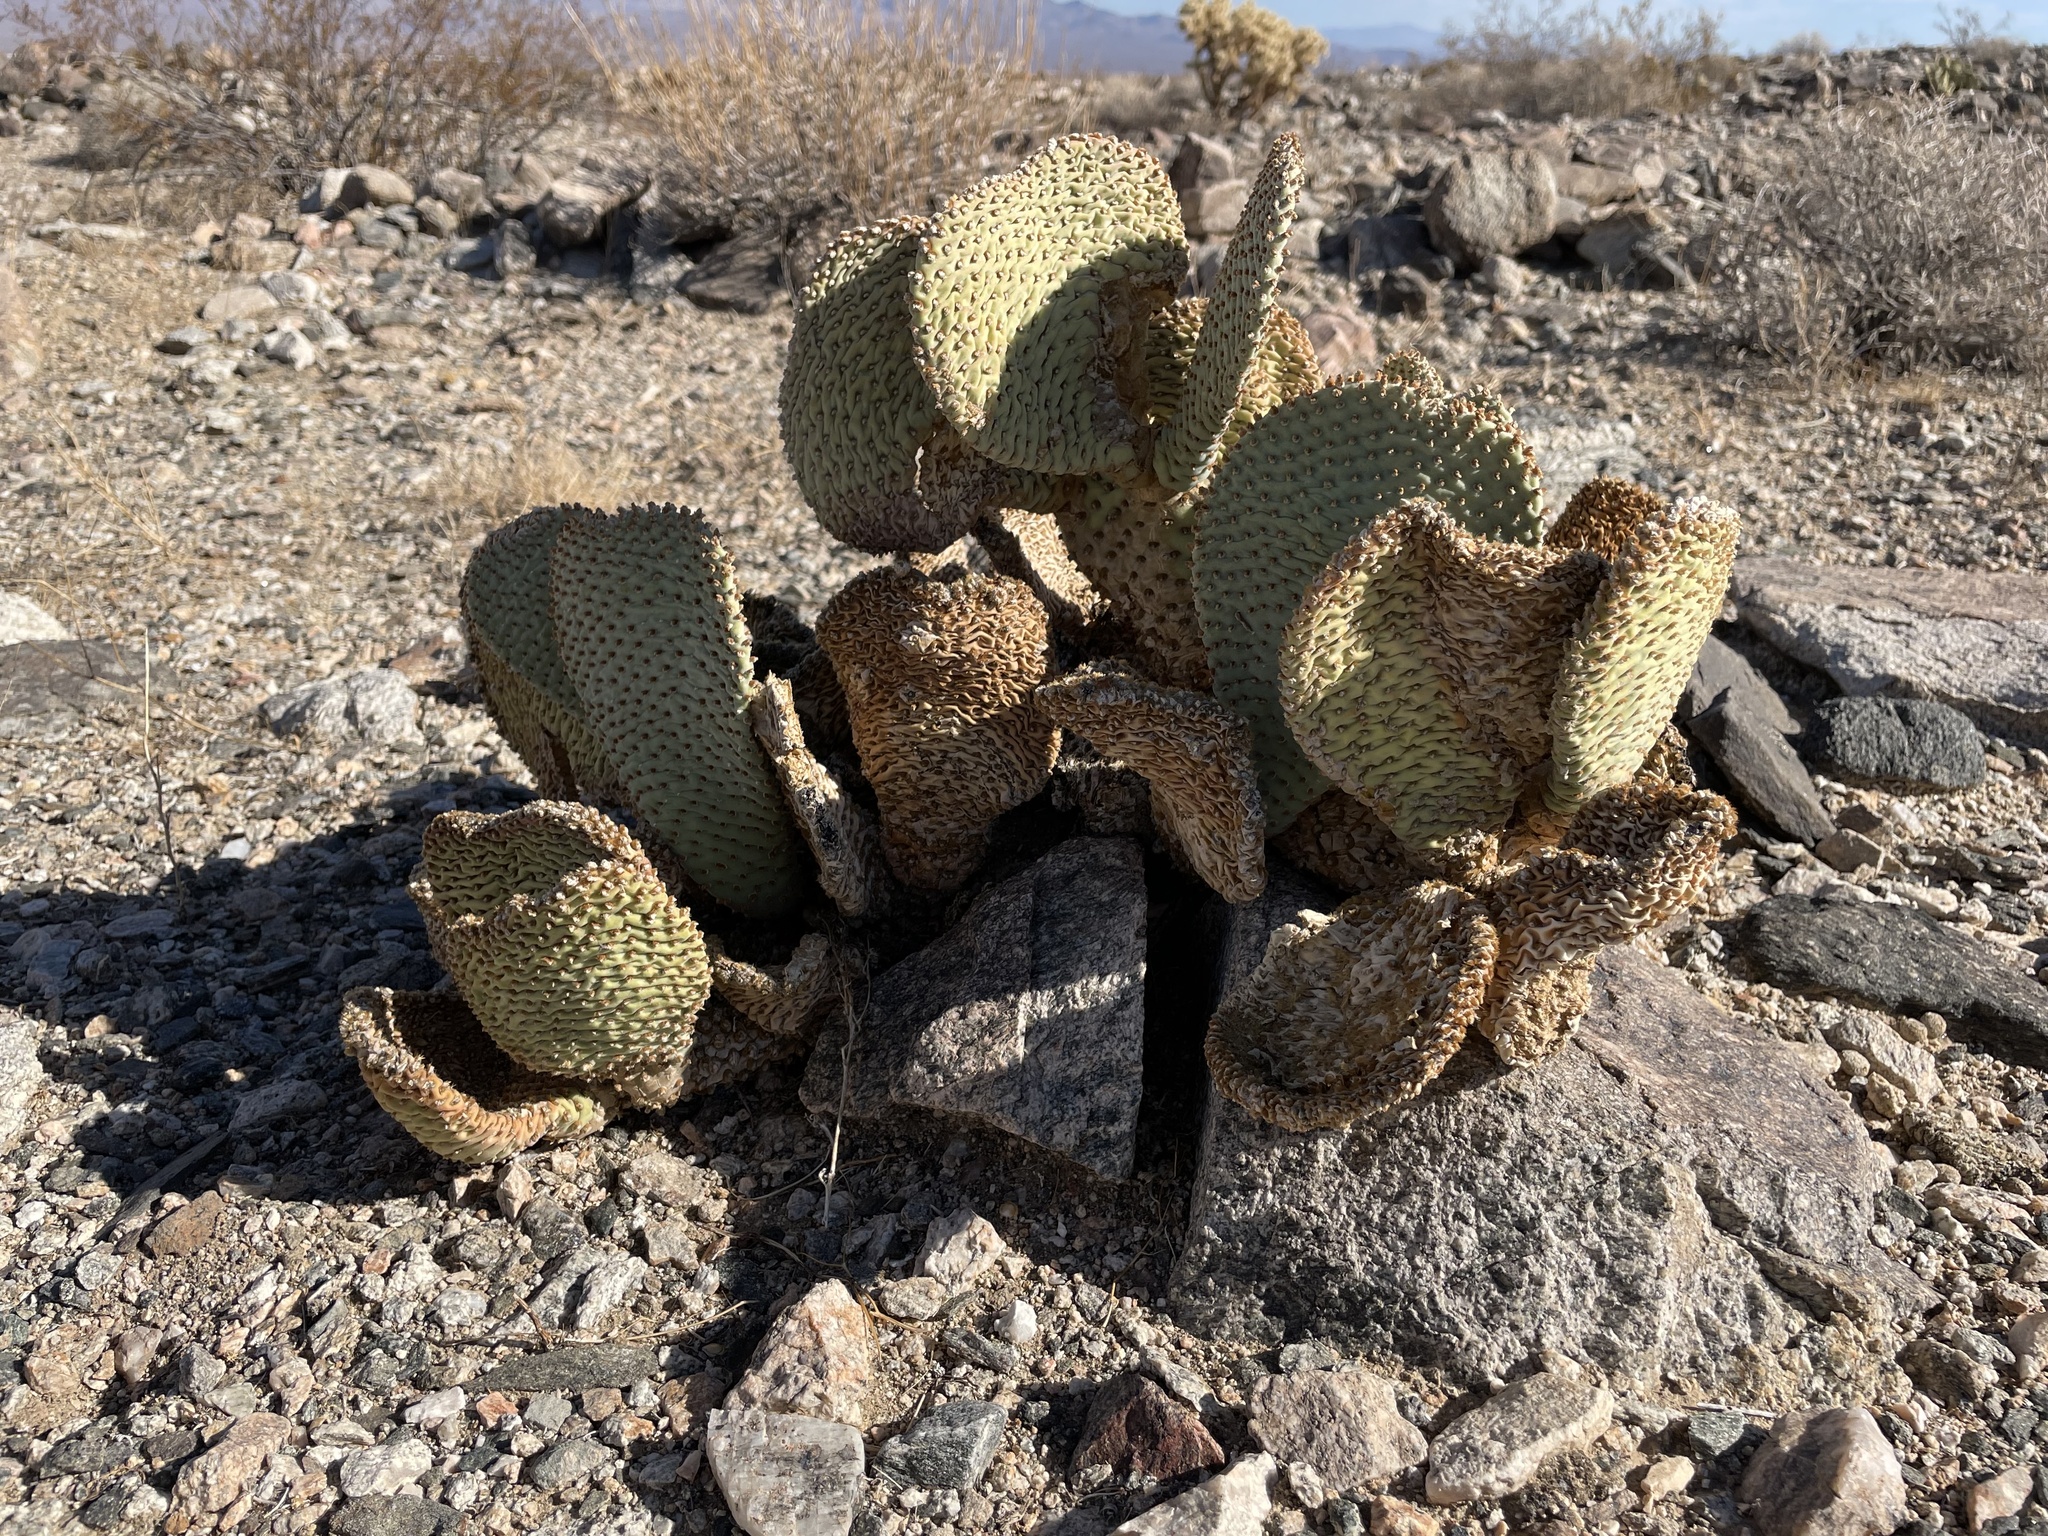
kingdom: Plantae
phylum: Tracheophyta
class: Magnoliopsida
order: Caryophyllales
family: Cactaceae
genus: Opuntia
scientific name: Opuntia basilaris
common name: Beavertail prickly-pear
